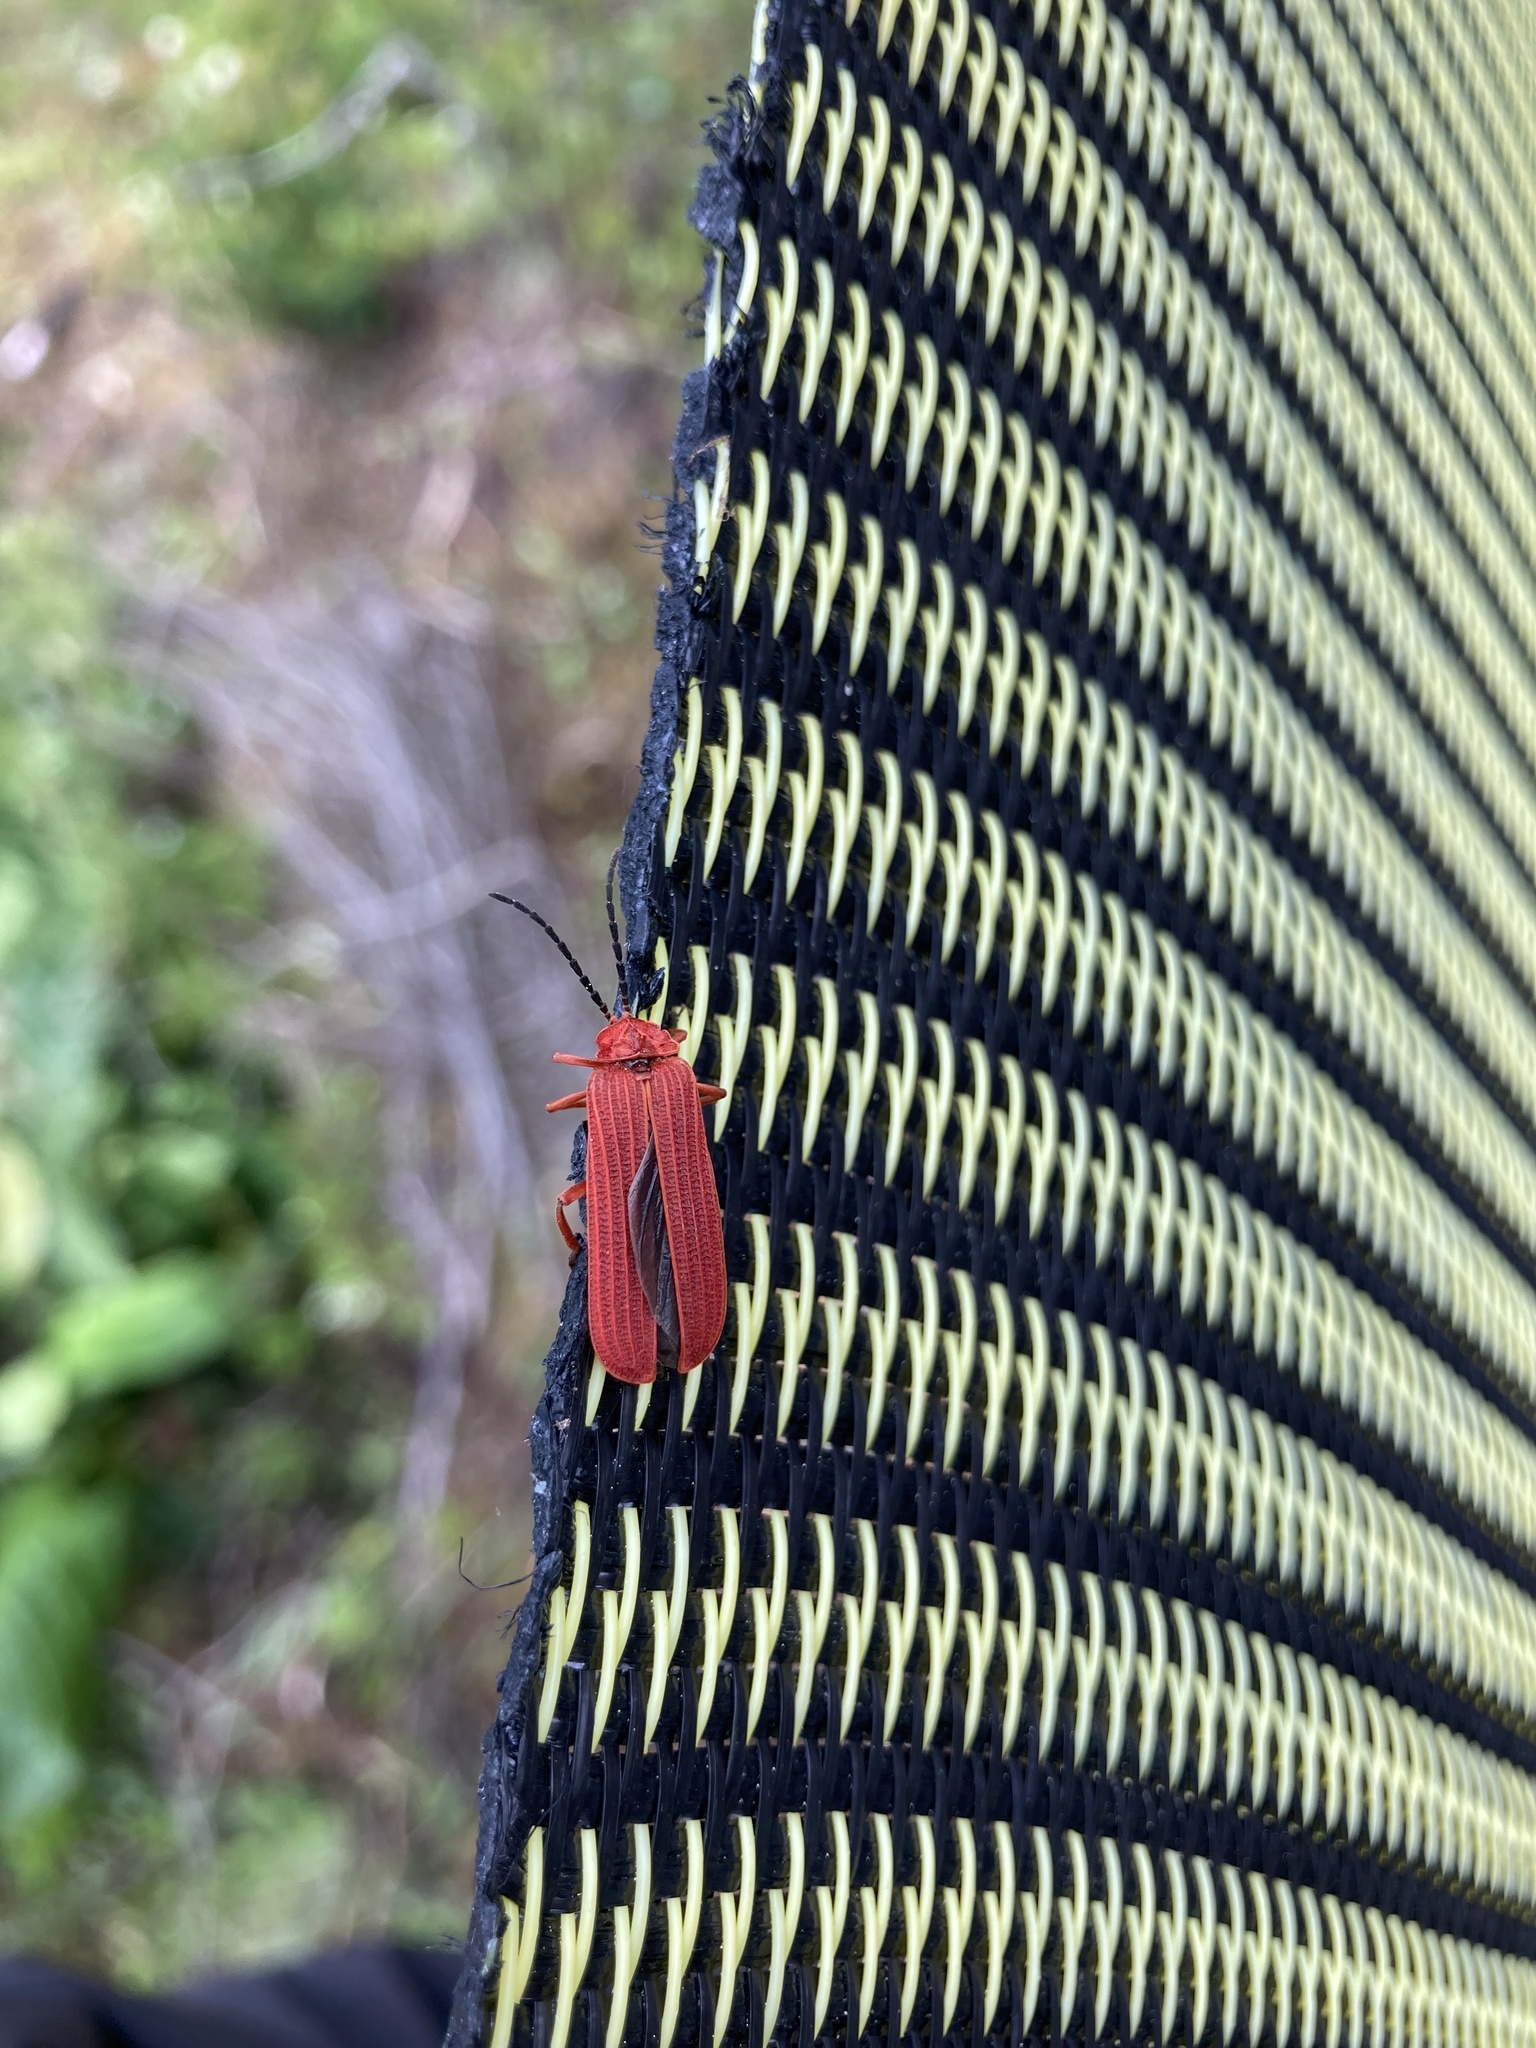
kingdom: Animalia
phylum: Arthropoda
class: Insecta
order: Coleoptera
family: Lycidae
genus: Punicealis
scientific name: Punicealis hamata
